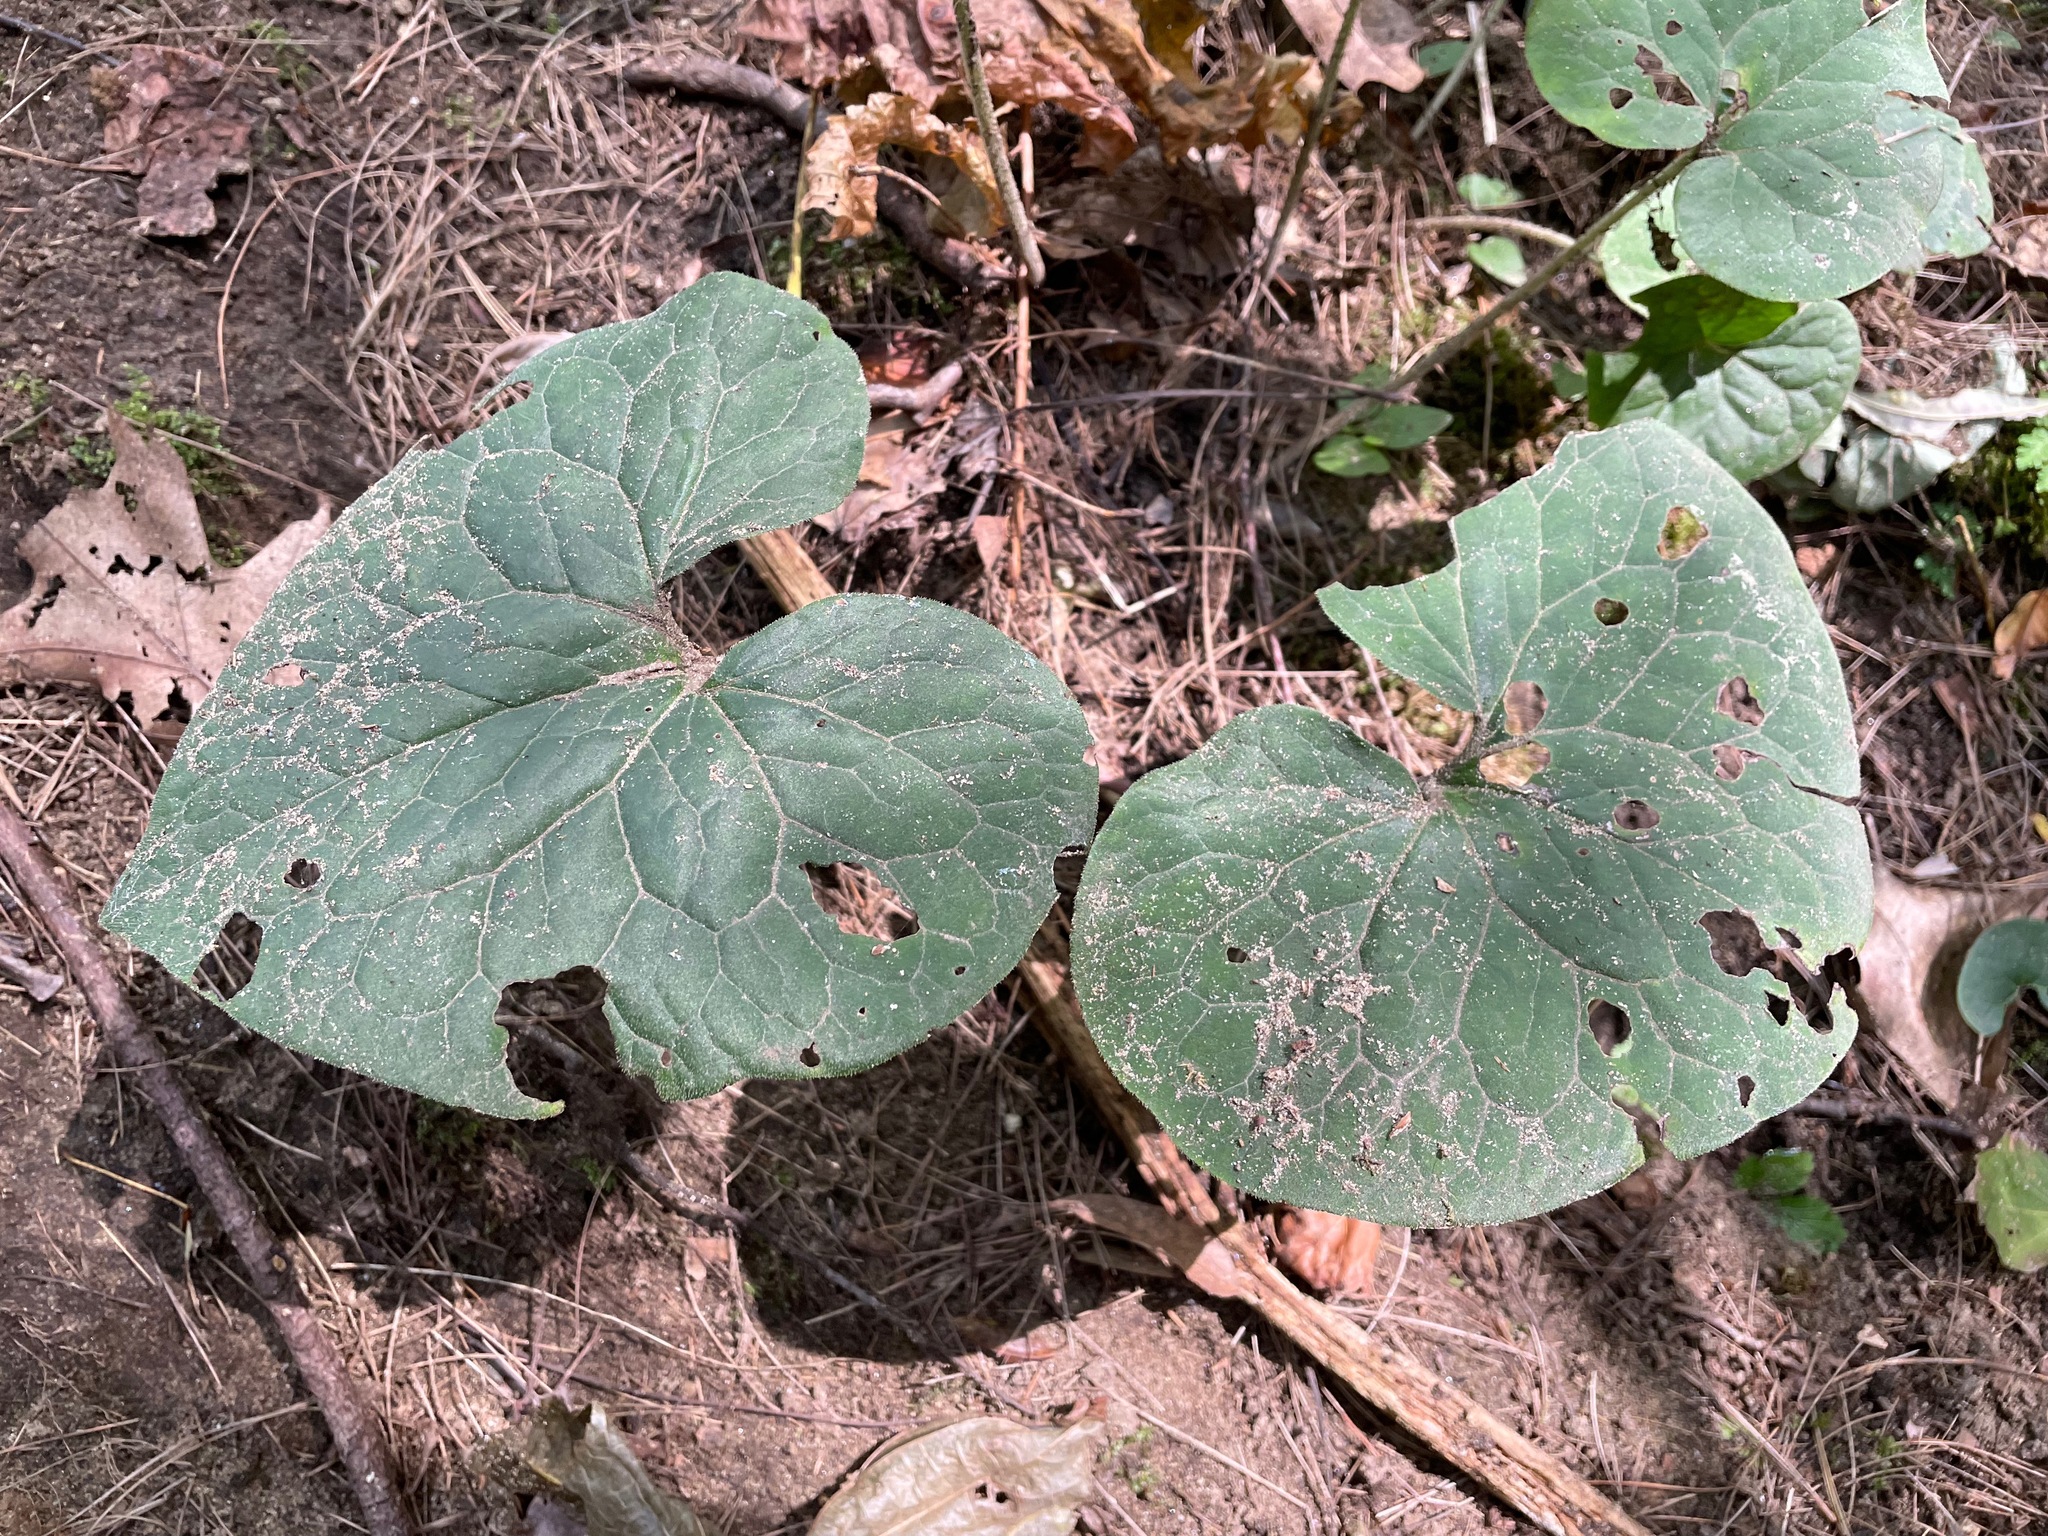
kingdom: Plantae
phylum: Tracheophyta
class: Magnoliopsida
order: Piperales
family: Aristolochiaceae
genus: Asarum
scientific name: Asarum canadense
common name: Wild ginger
